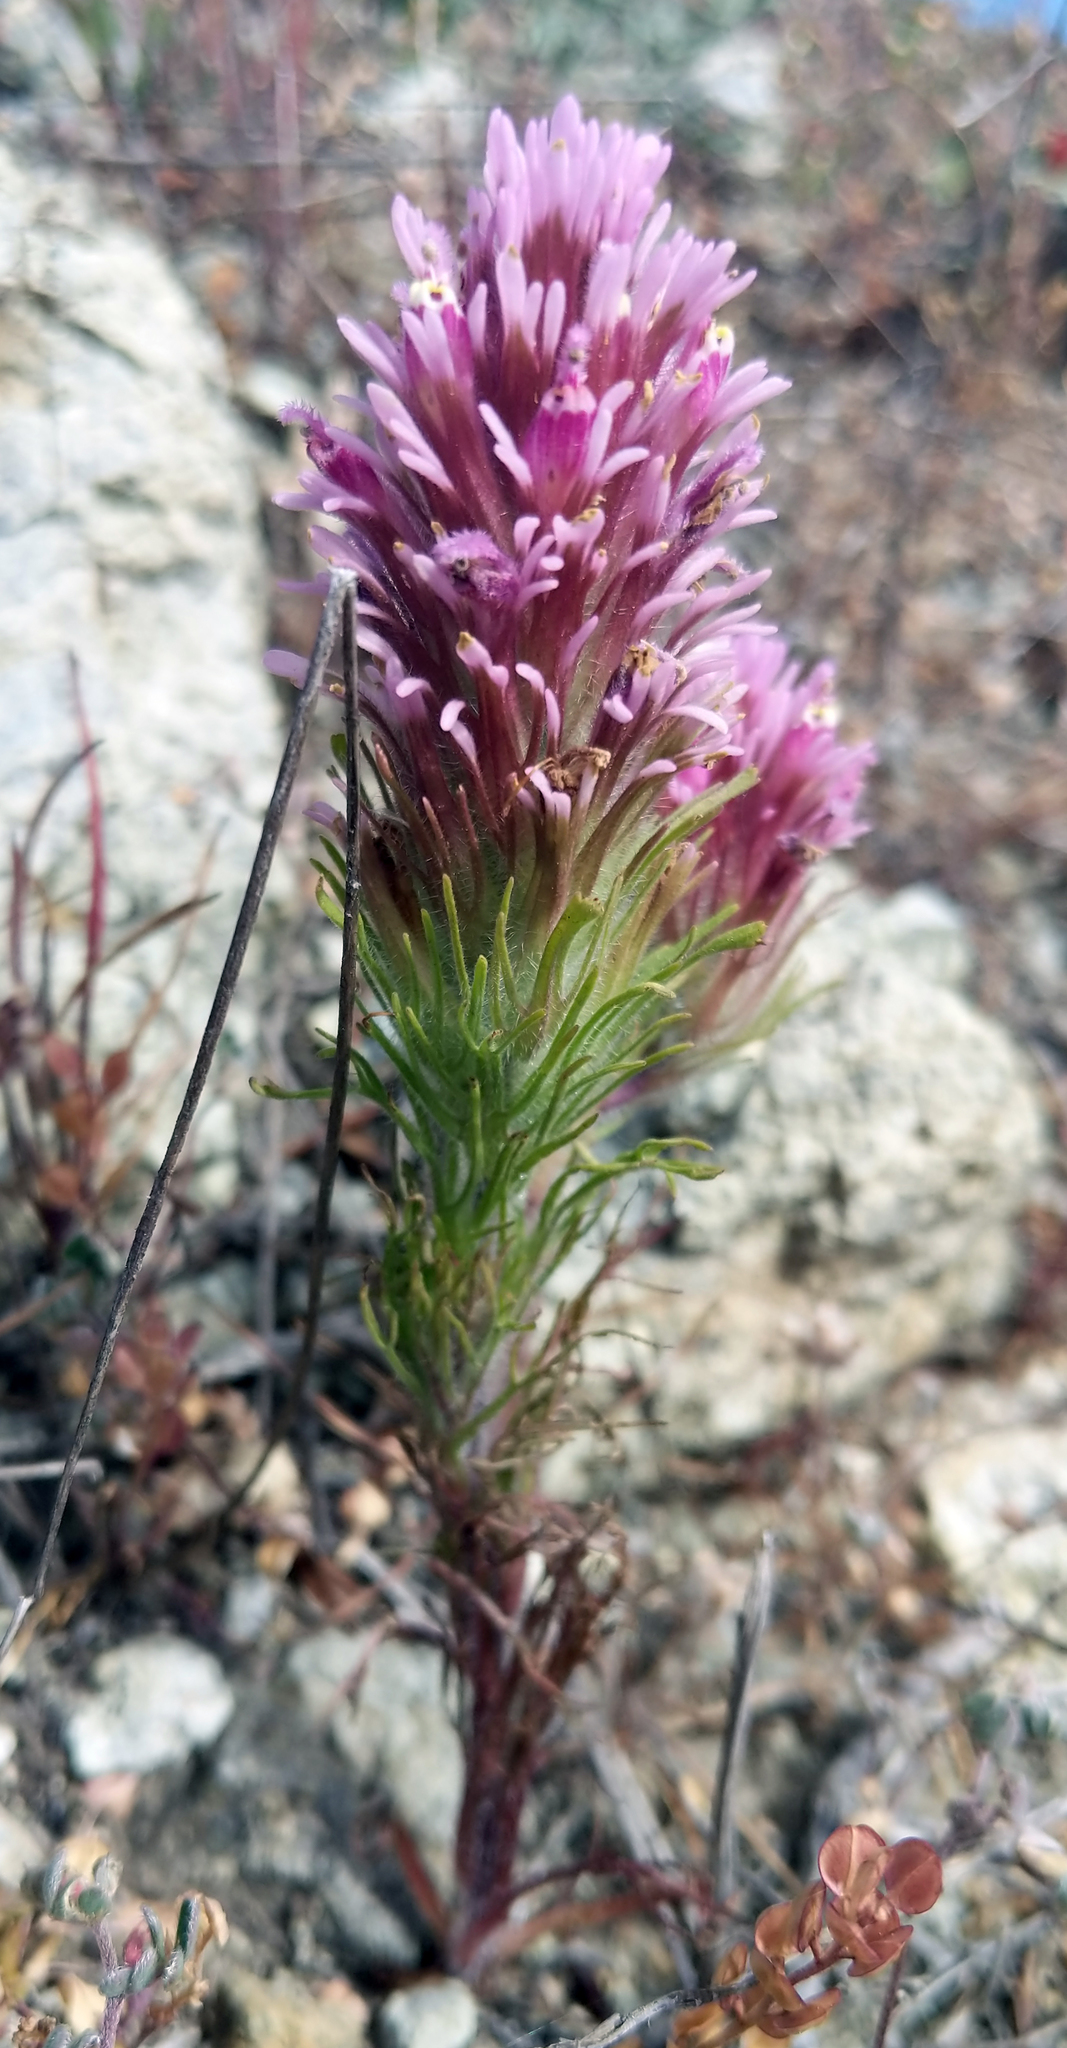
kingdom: Plantae
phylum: Tracheophyta
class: Magnoliopsida
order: Lamiales
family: Orobanchaceae
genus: Castilleja
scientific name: Castilleja exserta
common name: Purple owl-clover
